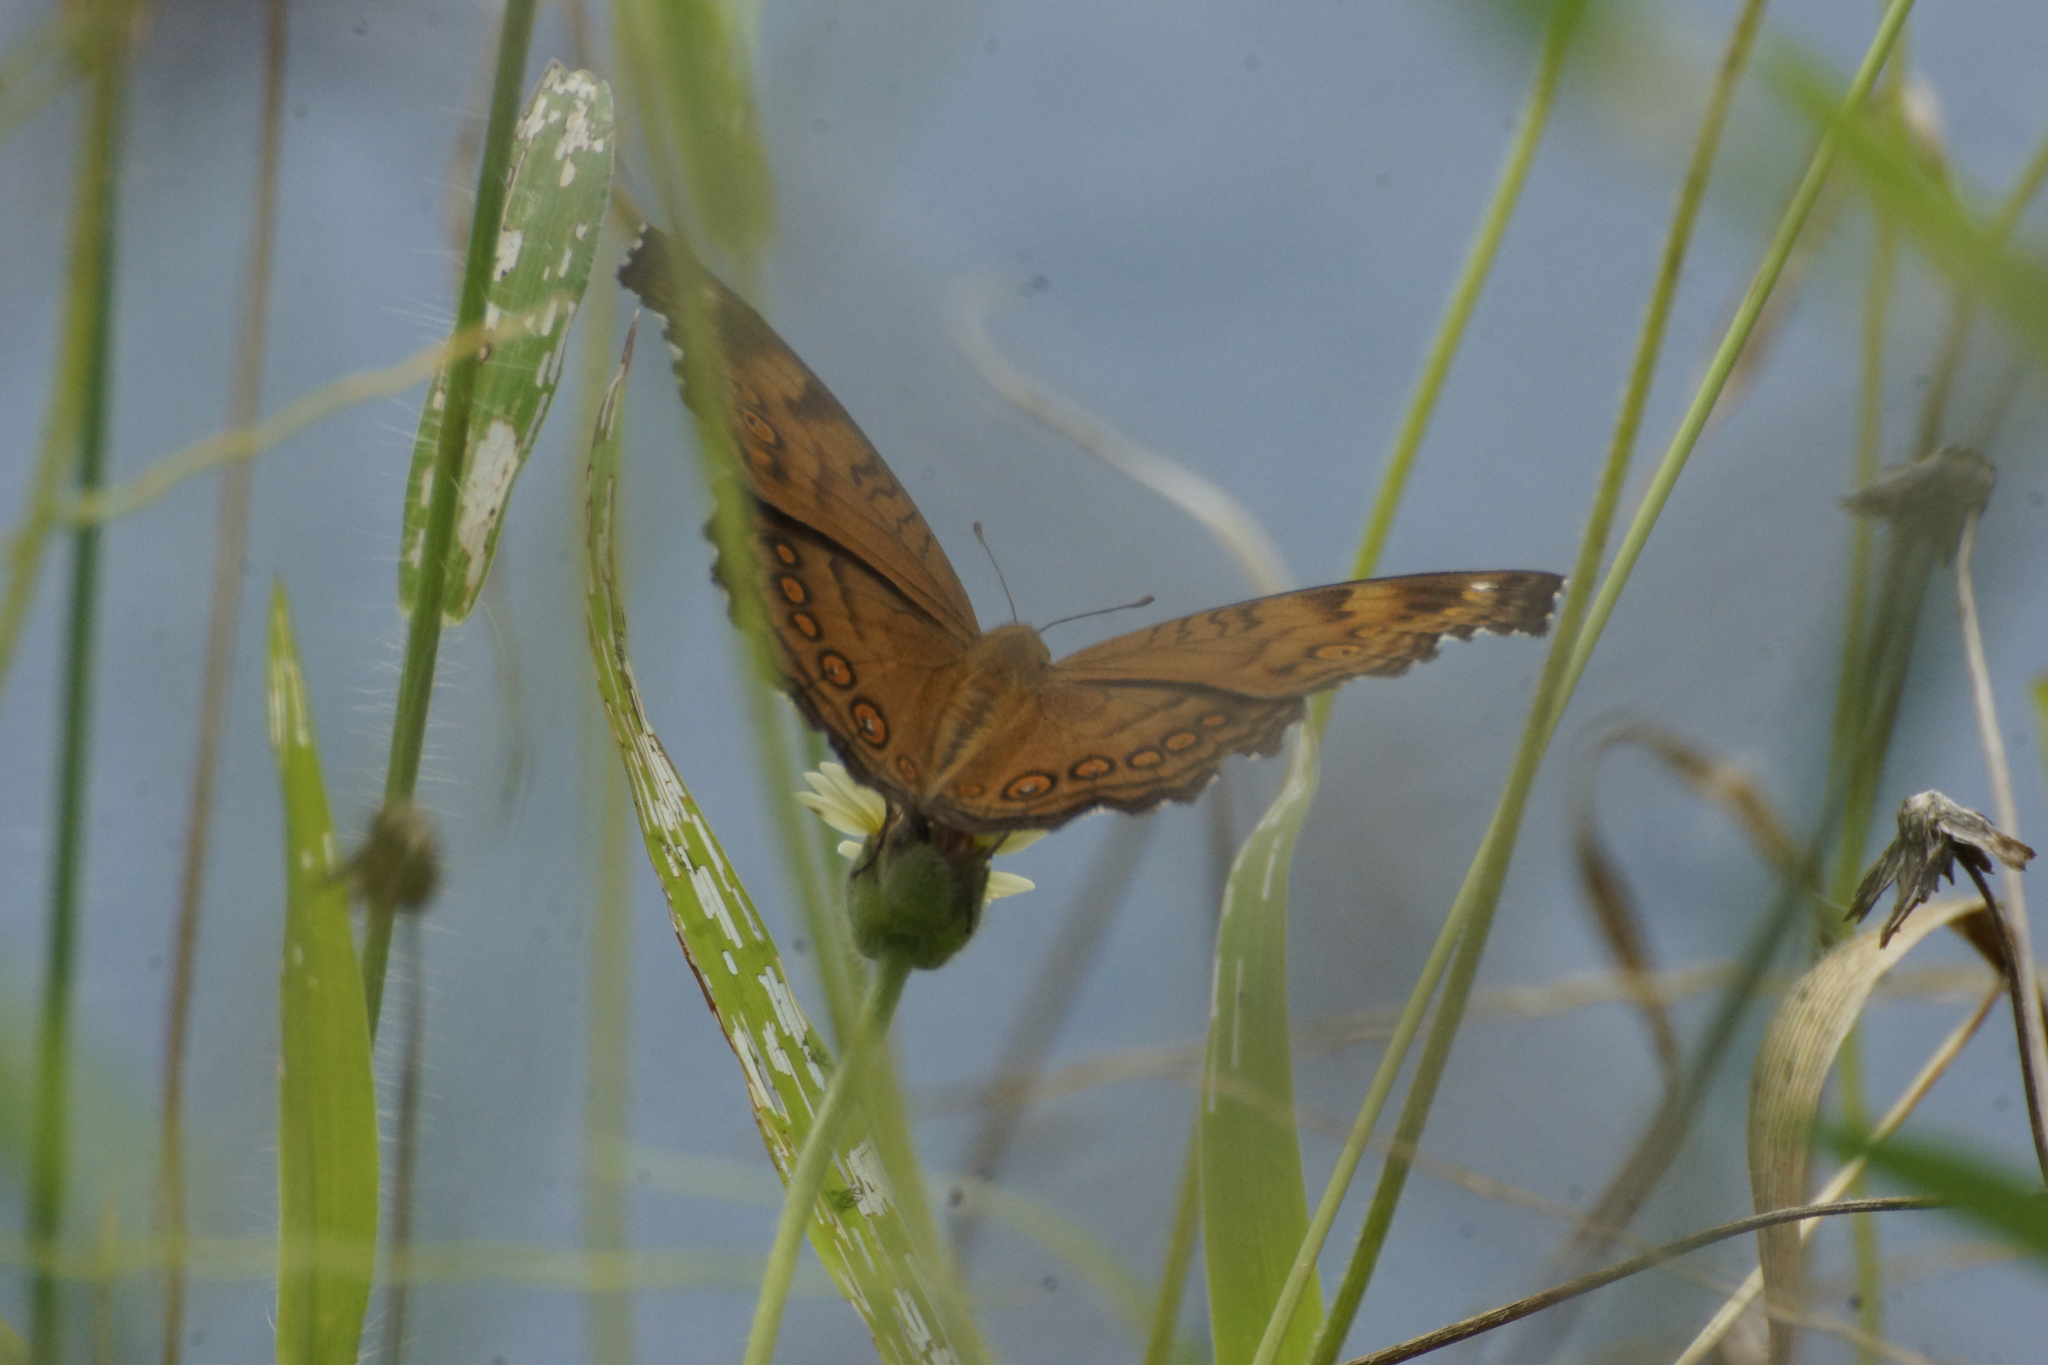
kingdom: Animalia
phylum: Arthropoda
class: Insecta
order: Lepidoptera
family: Nymphalidae
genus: Junonia
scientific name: Junonia hedonia
